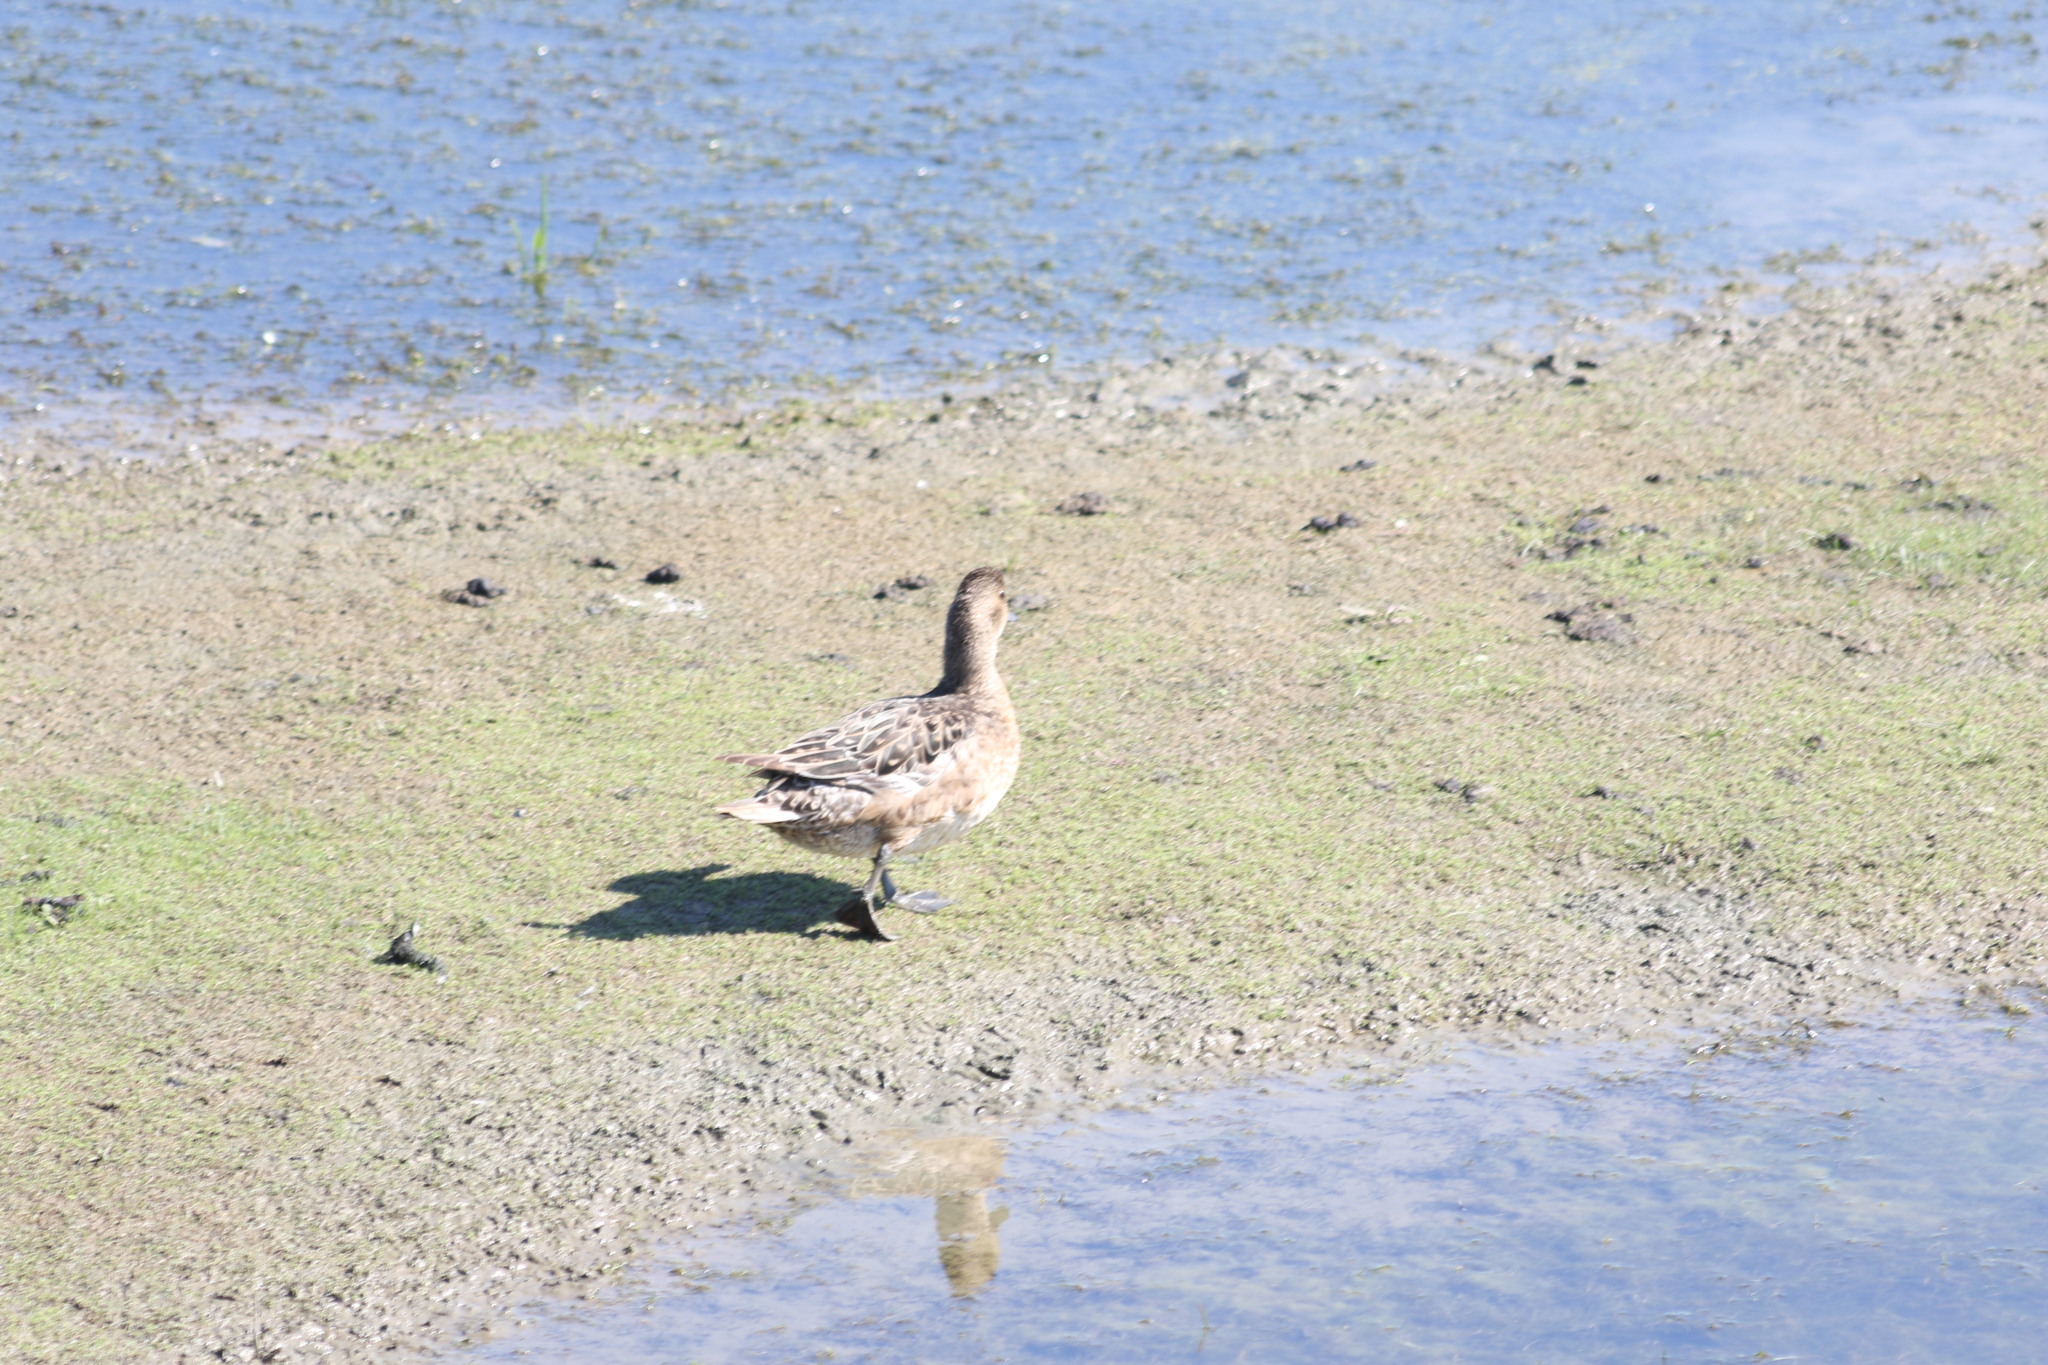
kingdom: Animalia
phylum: Chordata
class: Aves
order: Anseriformes
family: Anatidae
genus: Mareca
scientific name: Mareca penelope
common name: Eurasian wigeon
